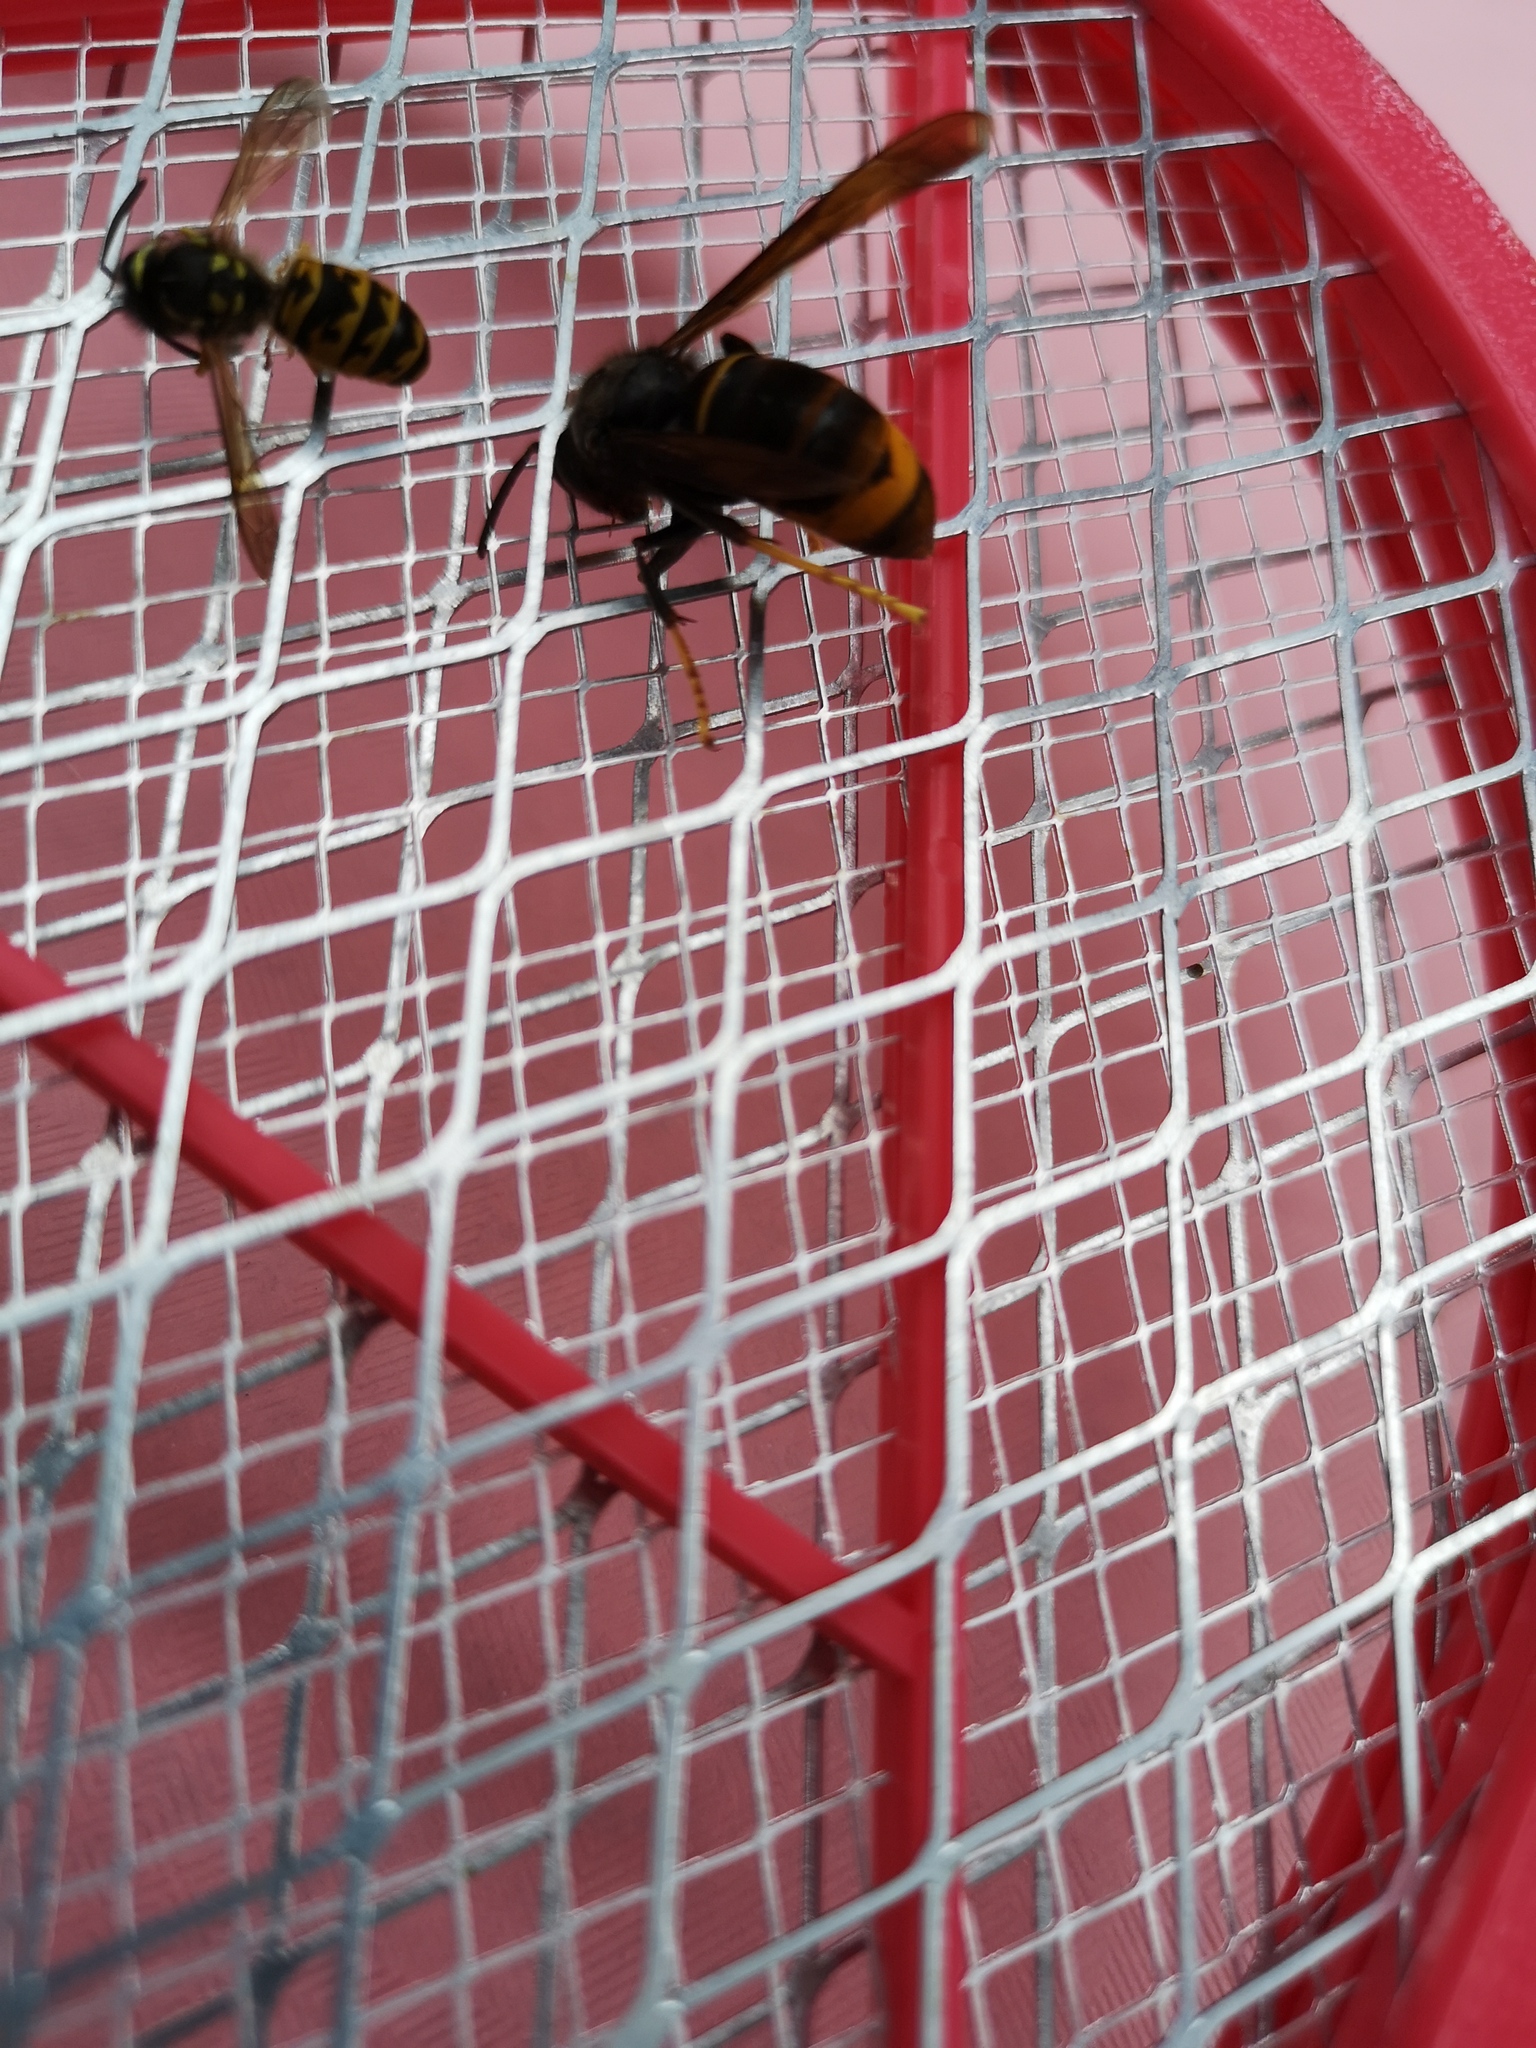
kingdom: Animalia
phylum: Arthropoda
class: Insecta
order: Hymenoptera
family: Vespidae
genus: Vespa
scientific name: Vespa velutina
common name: Asian hornet
